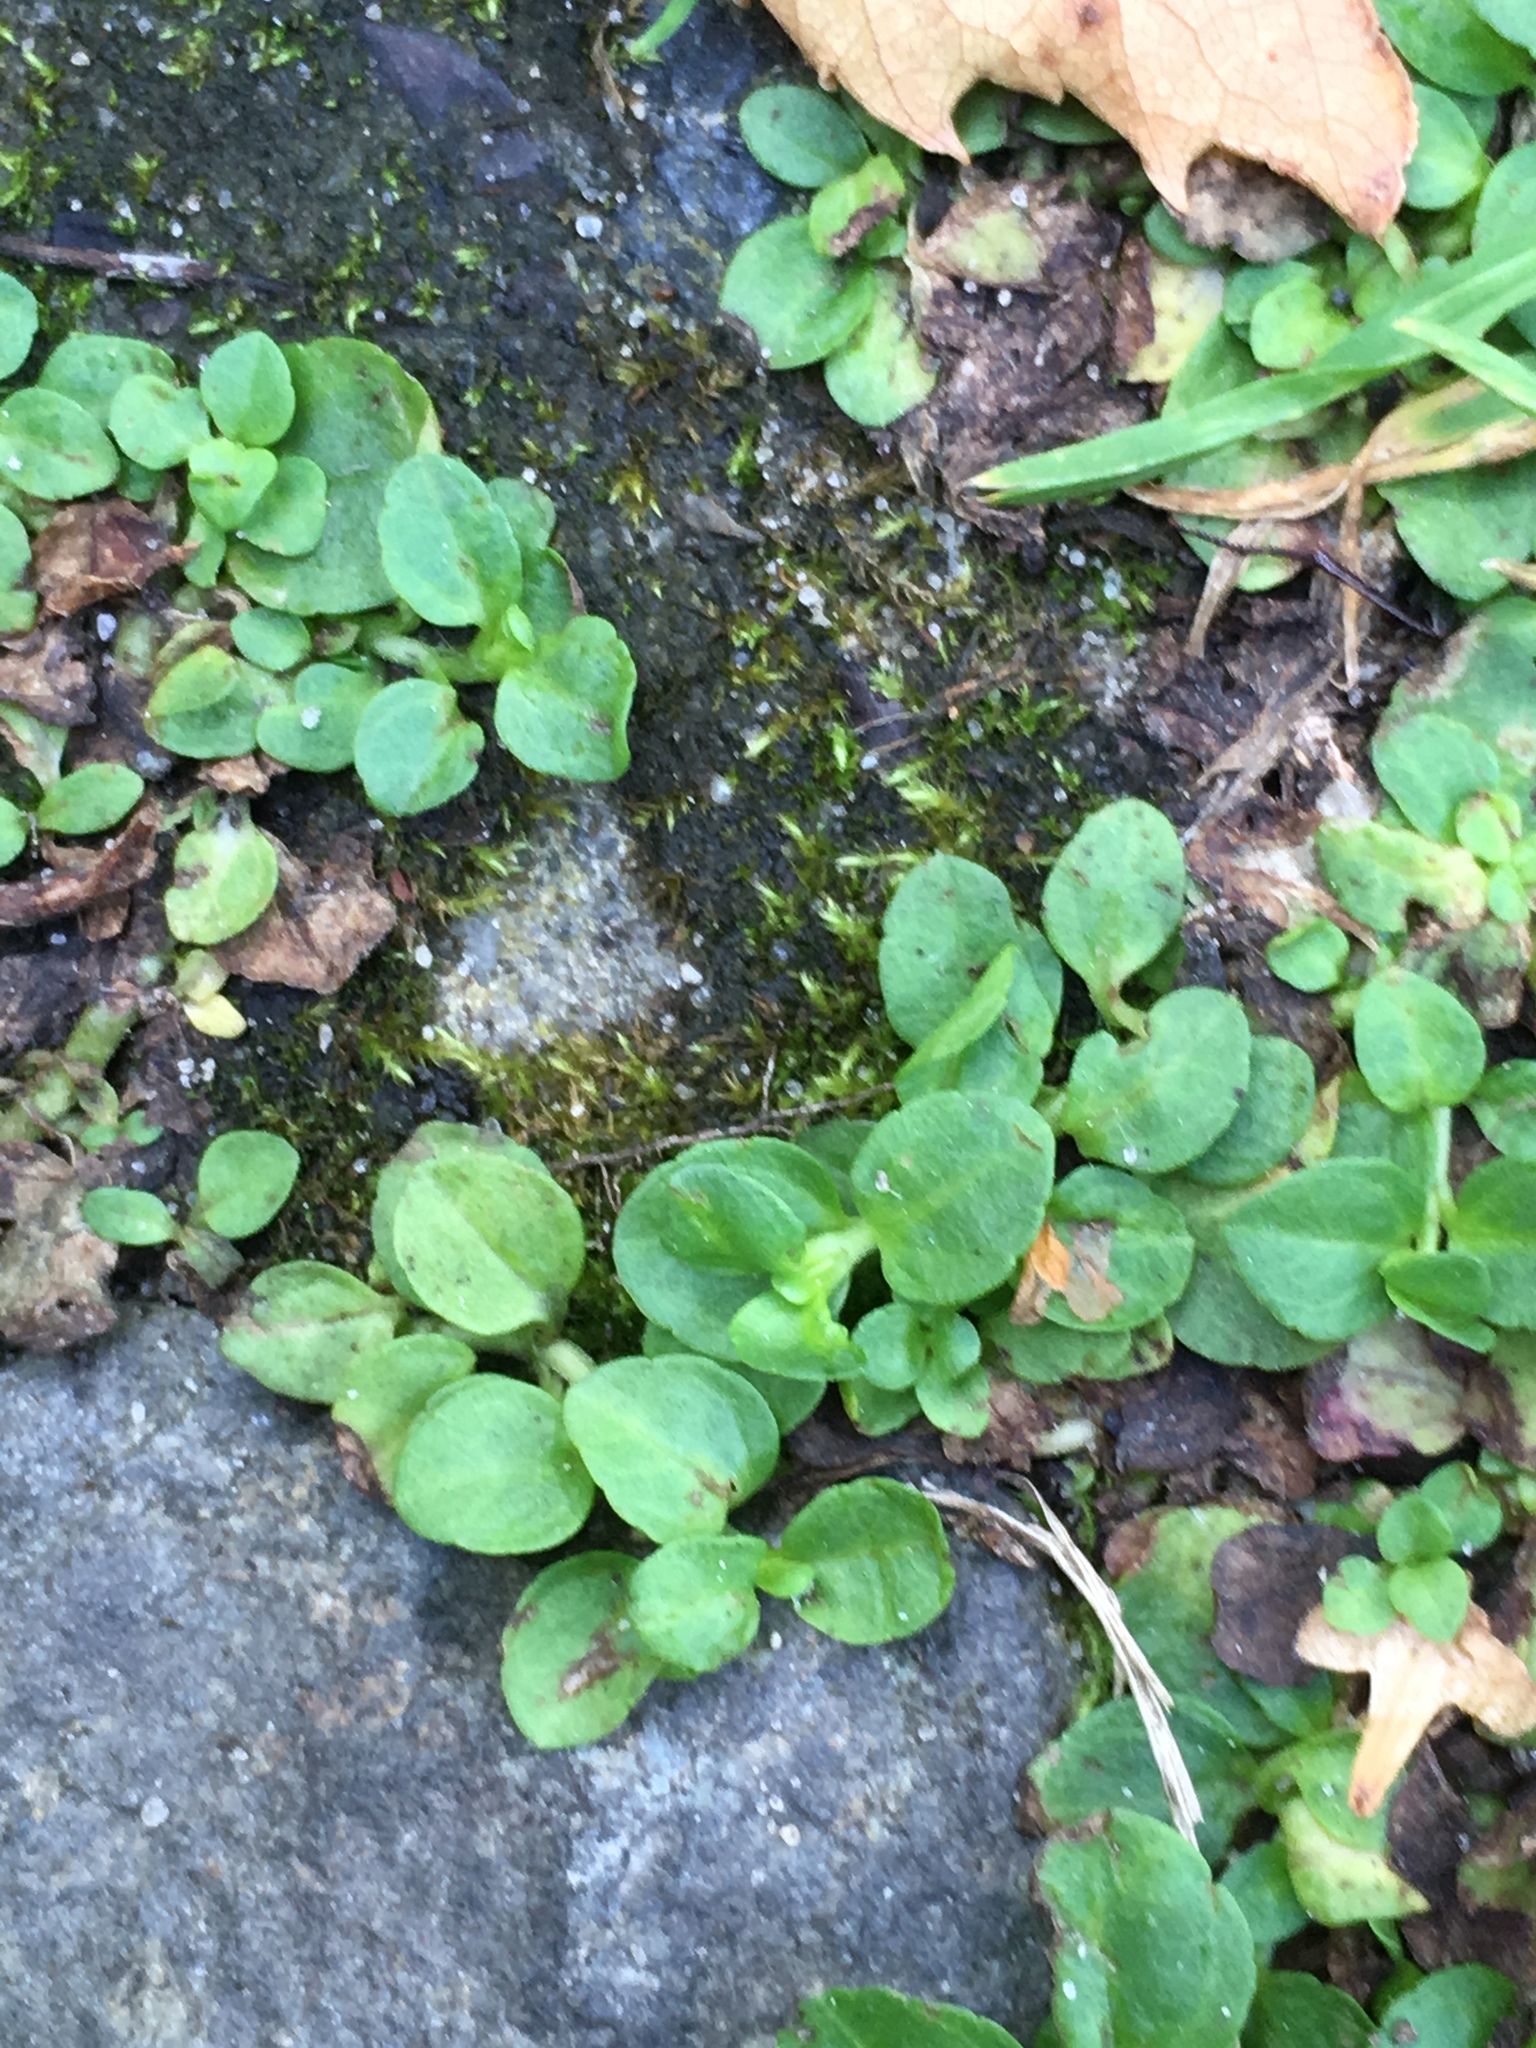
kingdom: Plantae
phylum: Tracheophyta
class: Magnoliopsida
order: Lamiales
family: Plantaginaceae
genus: Veronica
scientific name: Veronica serpyllifolia
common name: Thyme-leaved speedwell
